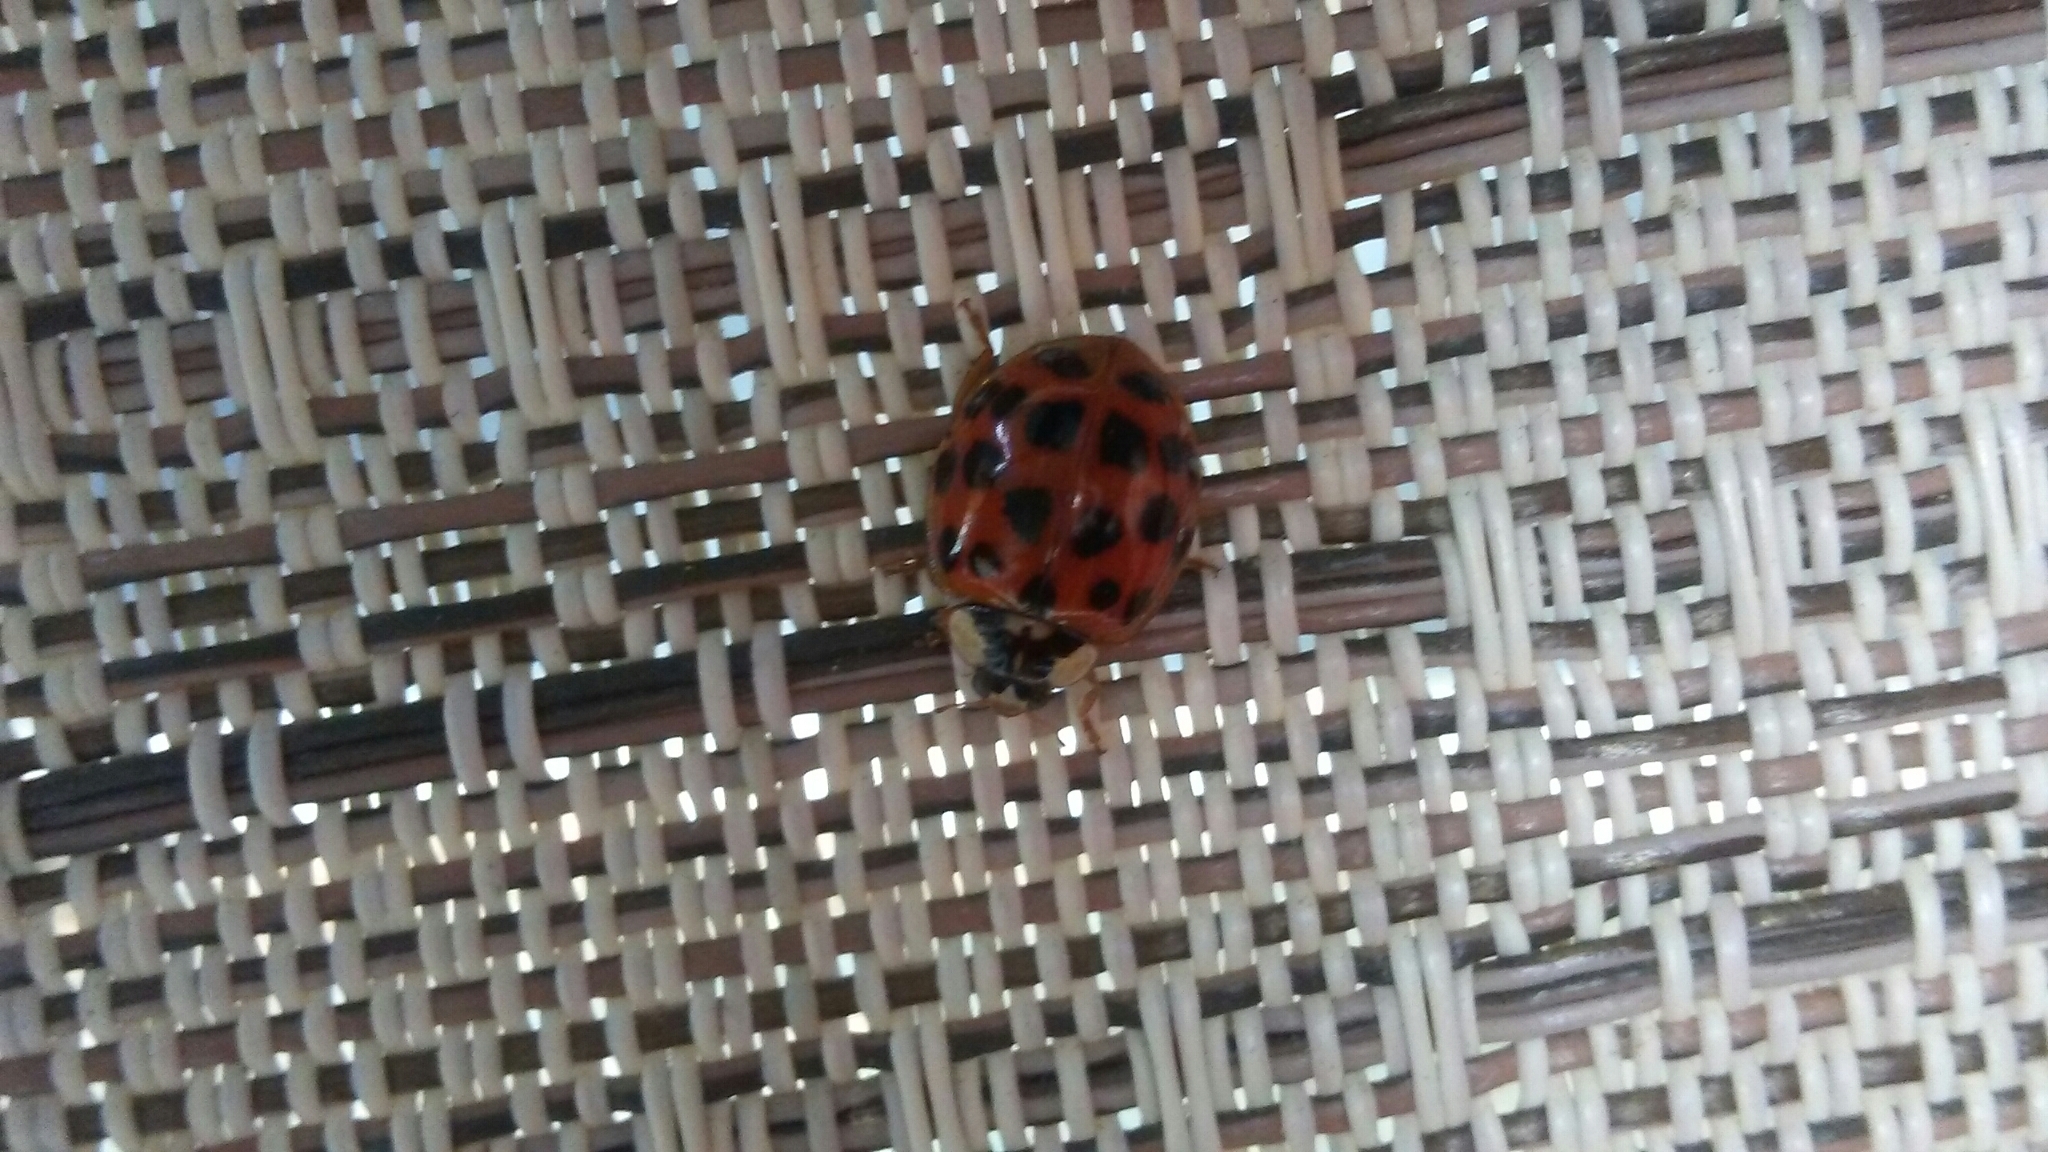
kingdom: Animalia
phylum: Arthropoda
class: Insecta
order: Coleoptera
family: Coccinellidae
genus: Harmonia
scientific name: Harmonia axyridis
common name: Harlequin ladybird
